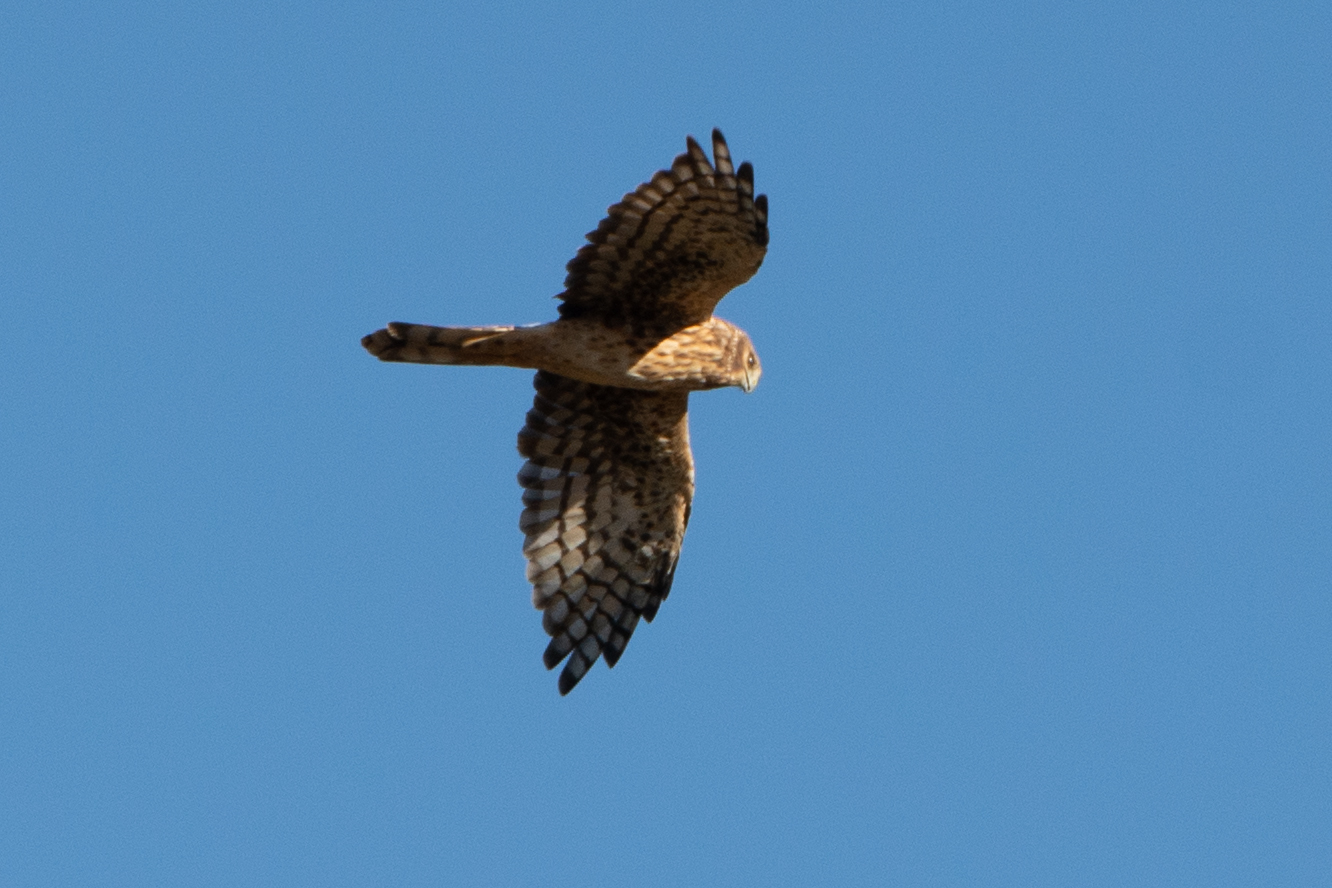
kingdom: Animalia
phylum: Chordata
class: Aves
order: Accipitriformes
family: Accipitridae
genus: Circus
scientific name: Circus cyaneus
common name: Hen harrier
